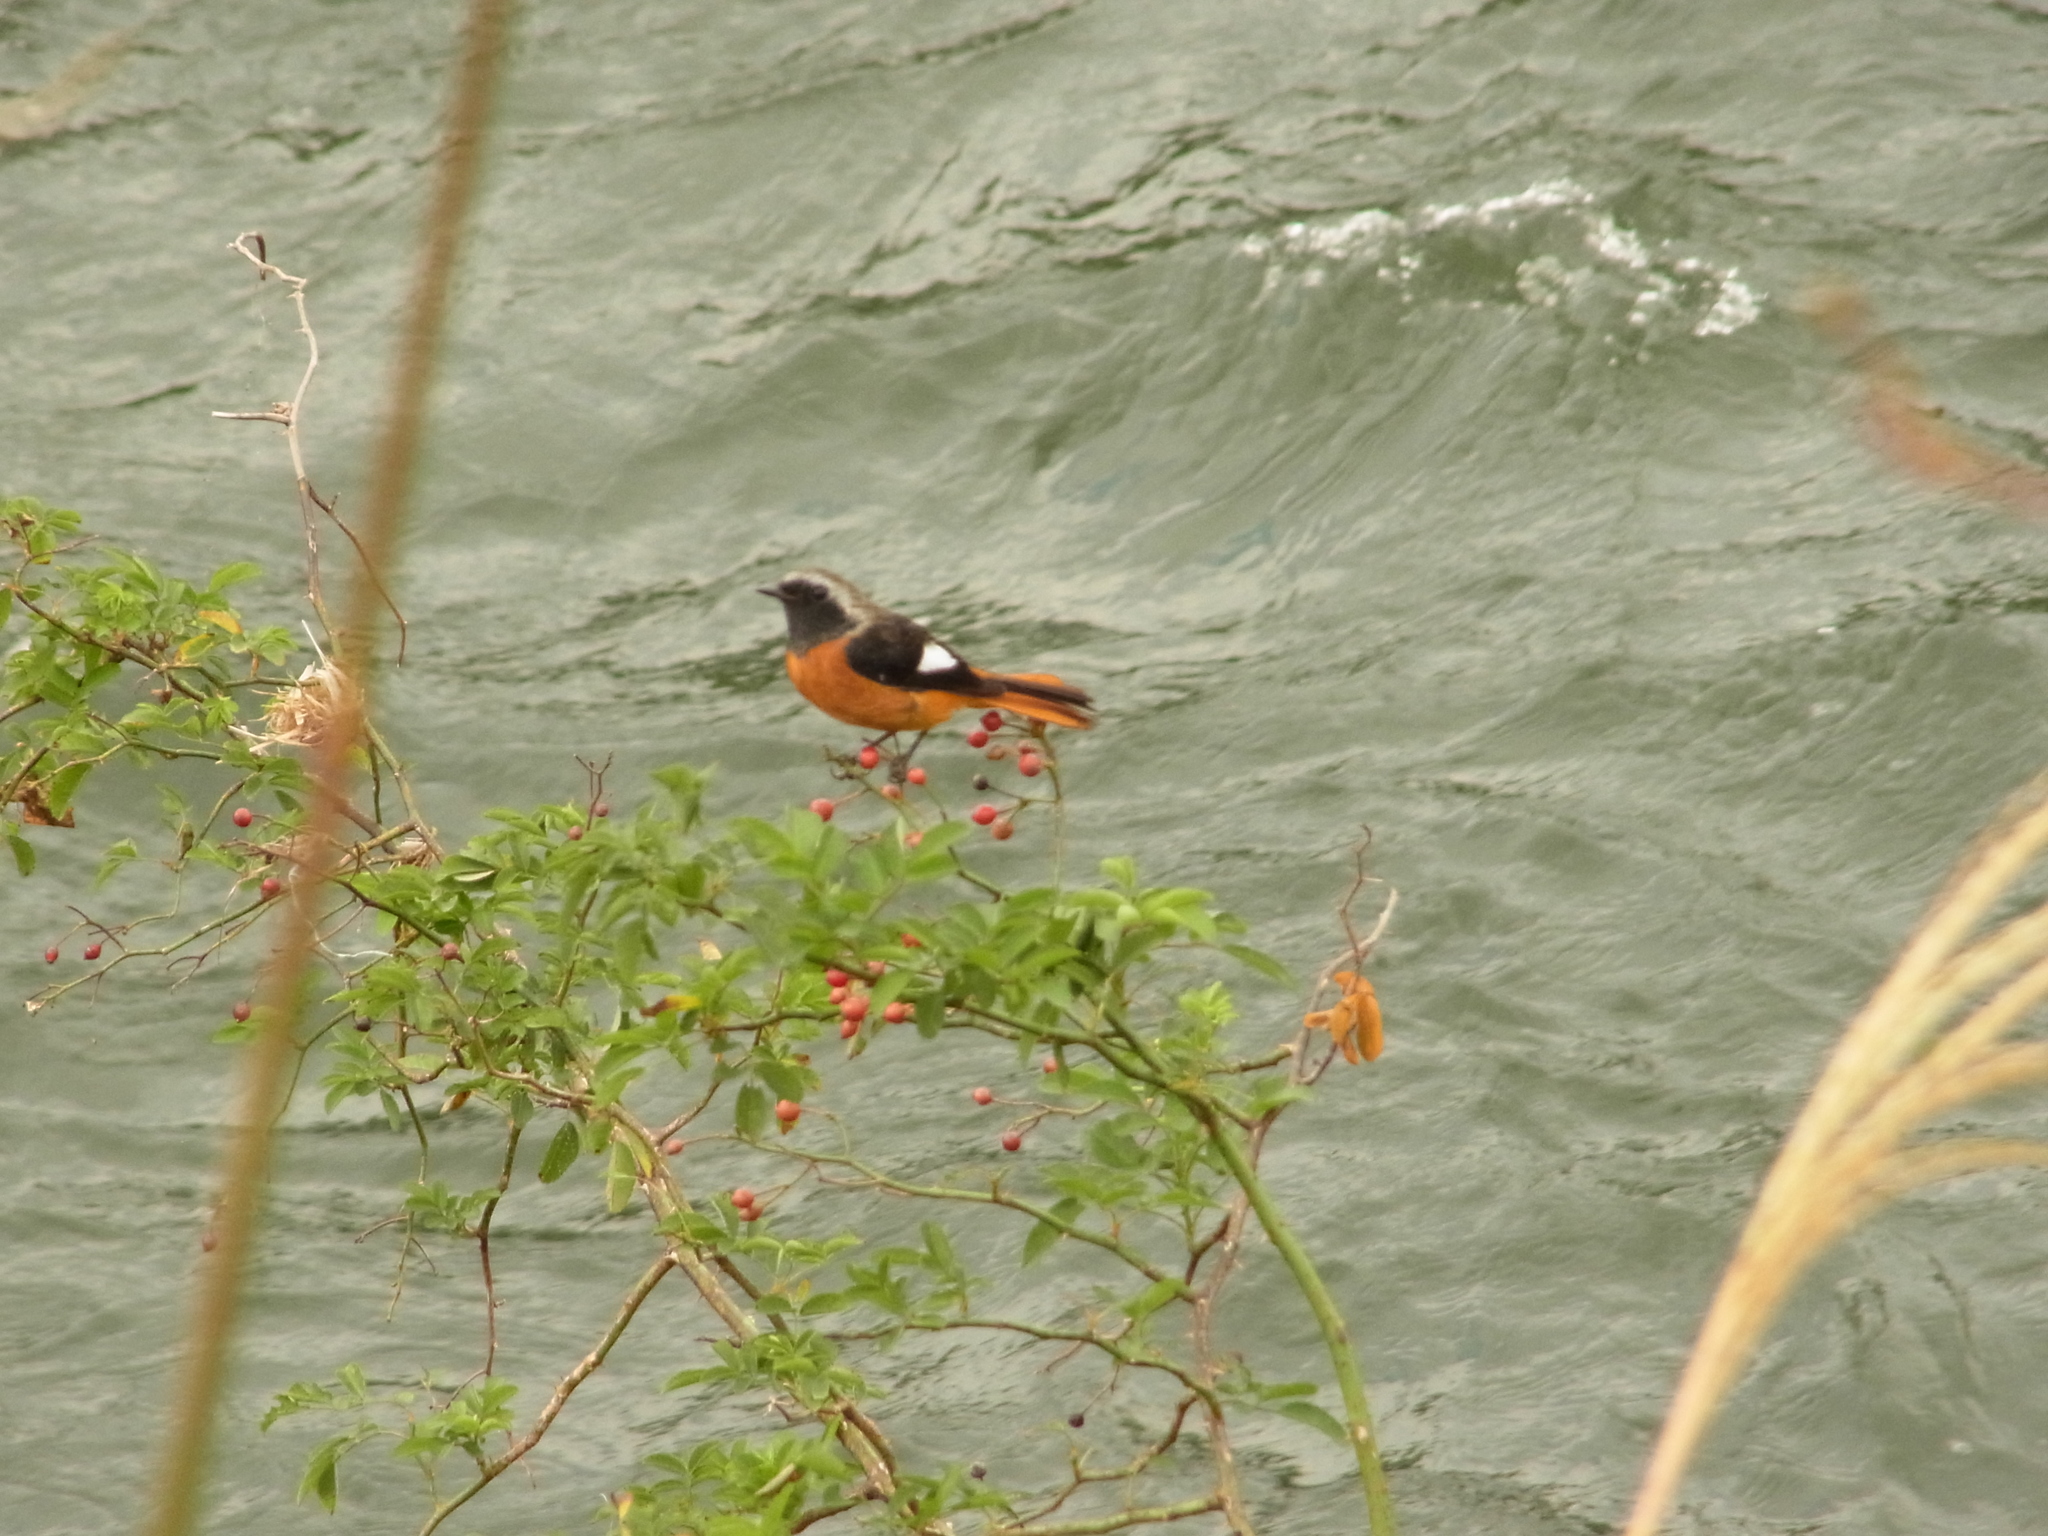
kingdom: Animalia
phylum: Chordata
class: Aves
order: Passeriformes
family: Muscicapidae
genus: Phoenicurus
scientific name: Phoenicurus auroreus
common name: Daurian redstart
